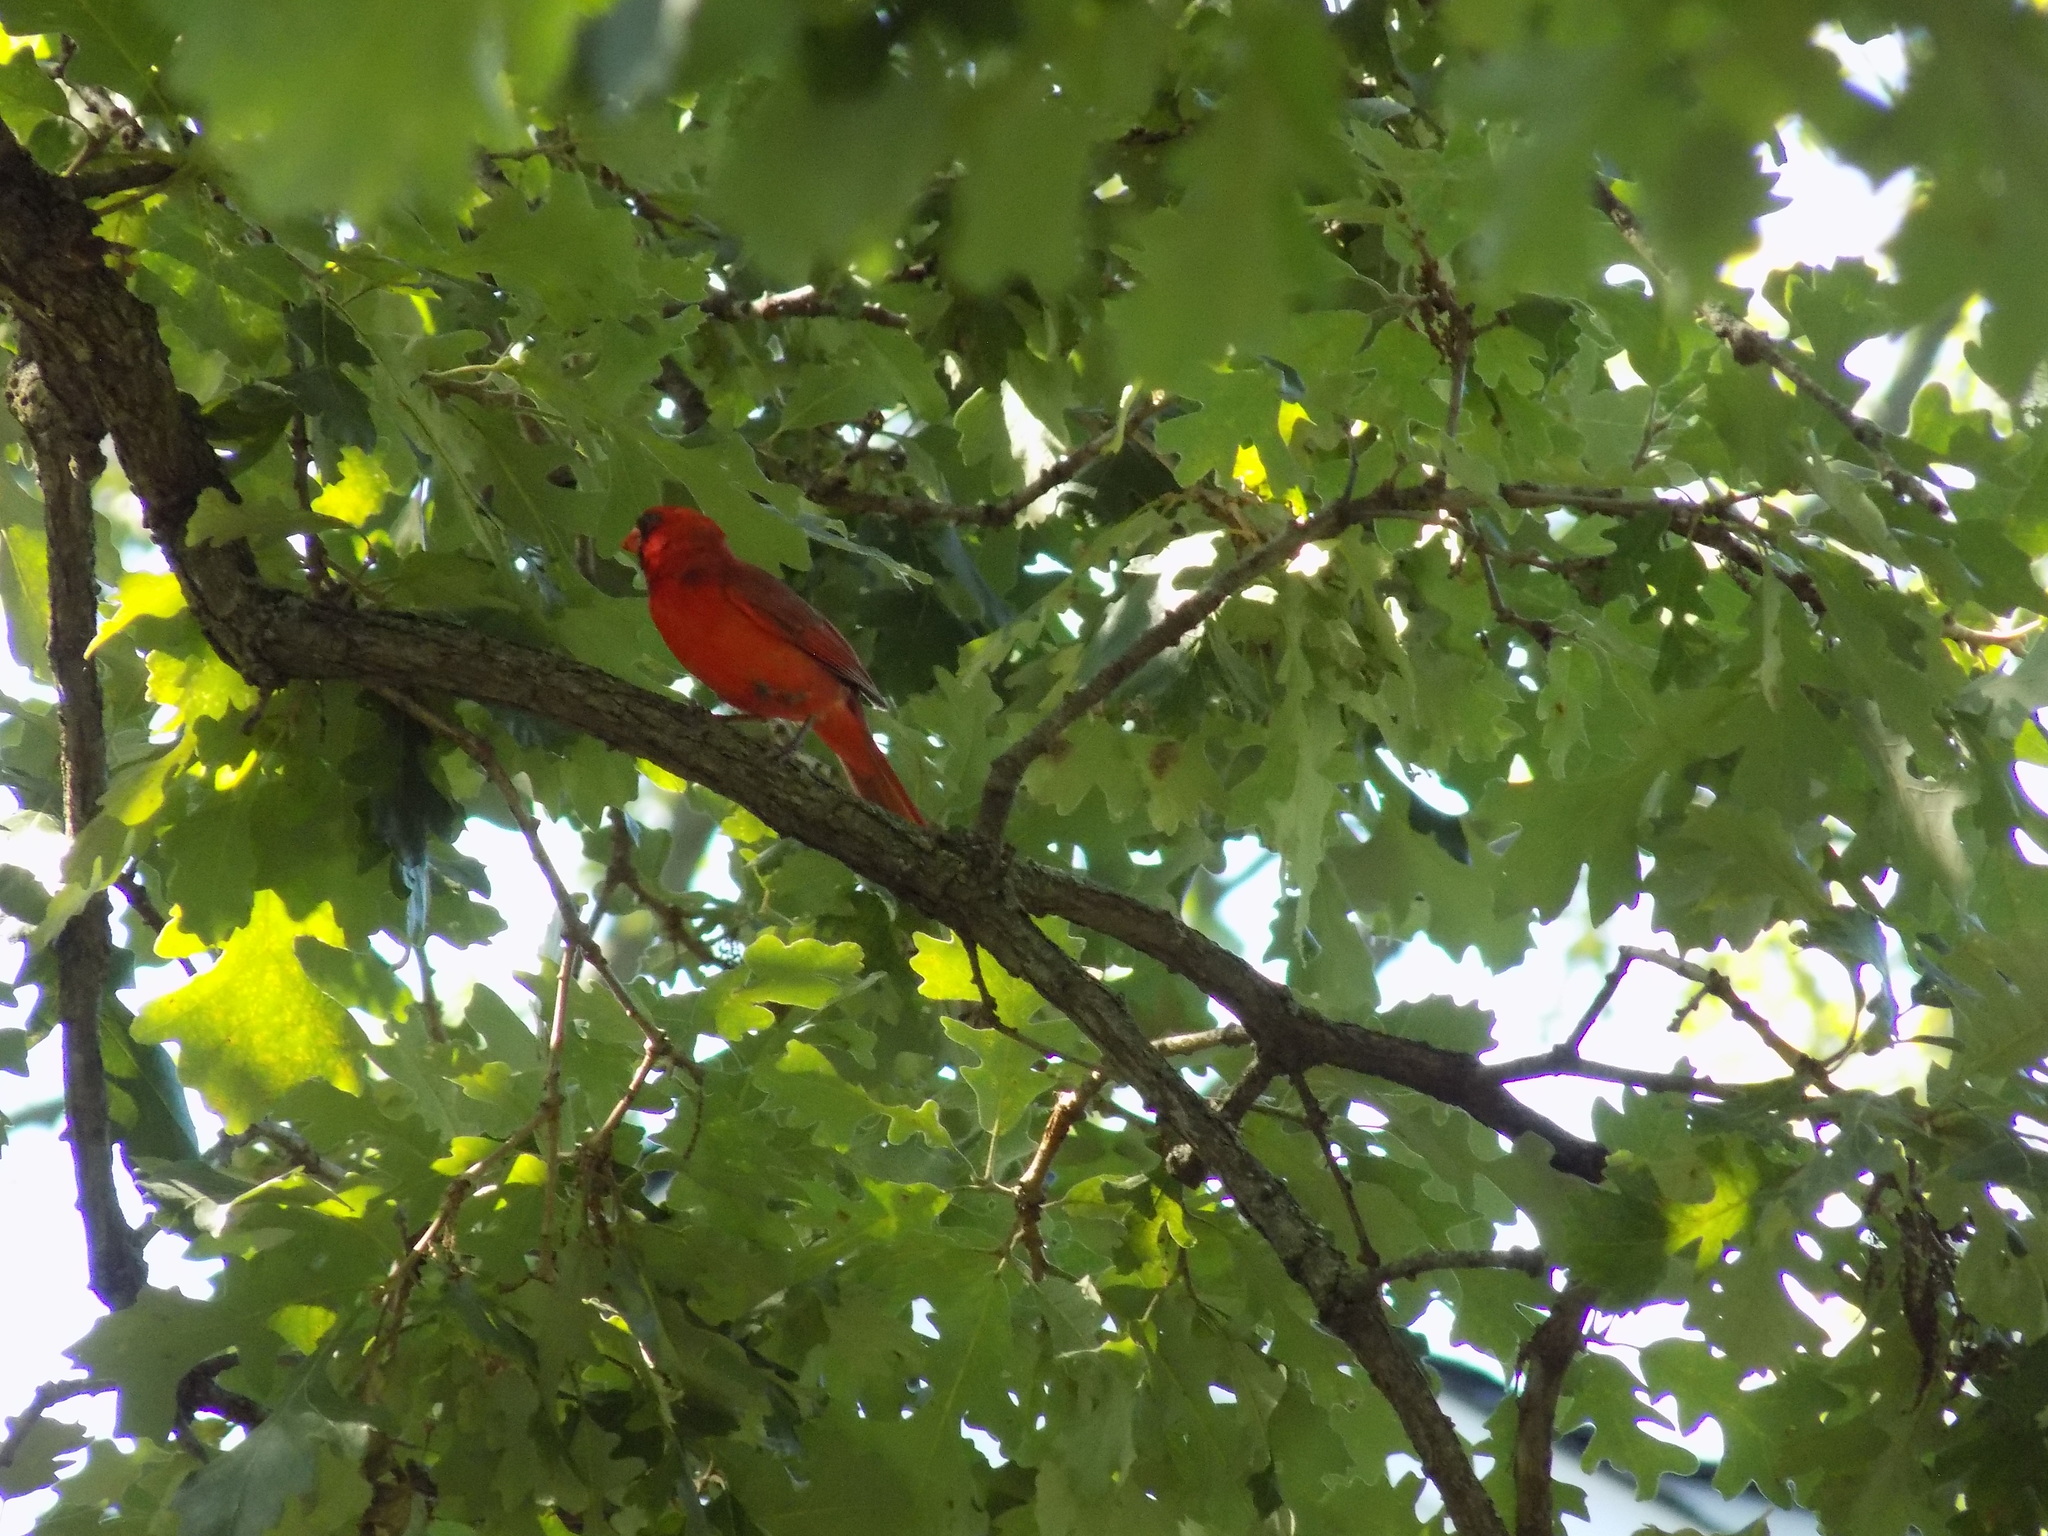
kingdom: Animalia
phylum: Chordata
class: Aves
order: Passeriformes
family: Cardinalidae
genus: Cardinalis
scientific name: Cardinalis cardinalis
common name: Northern cardinal
